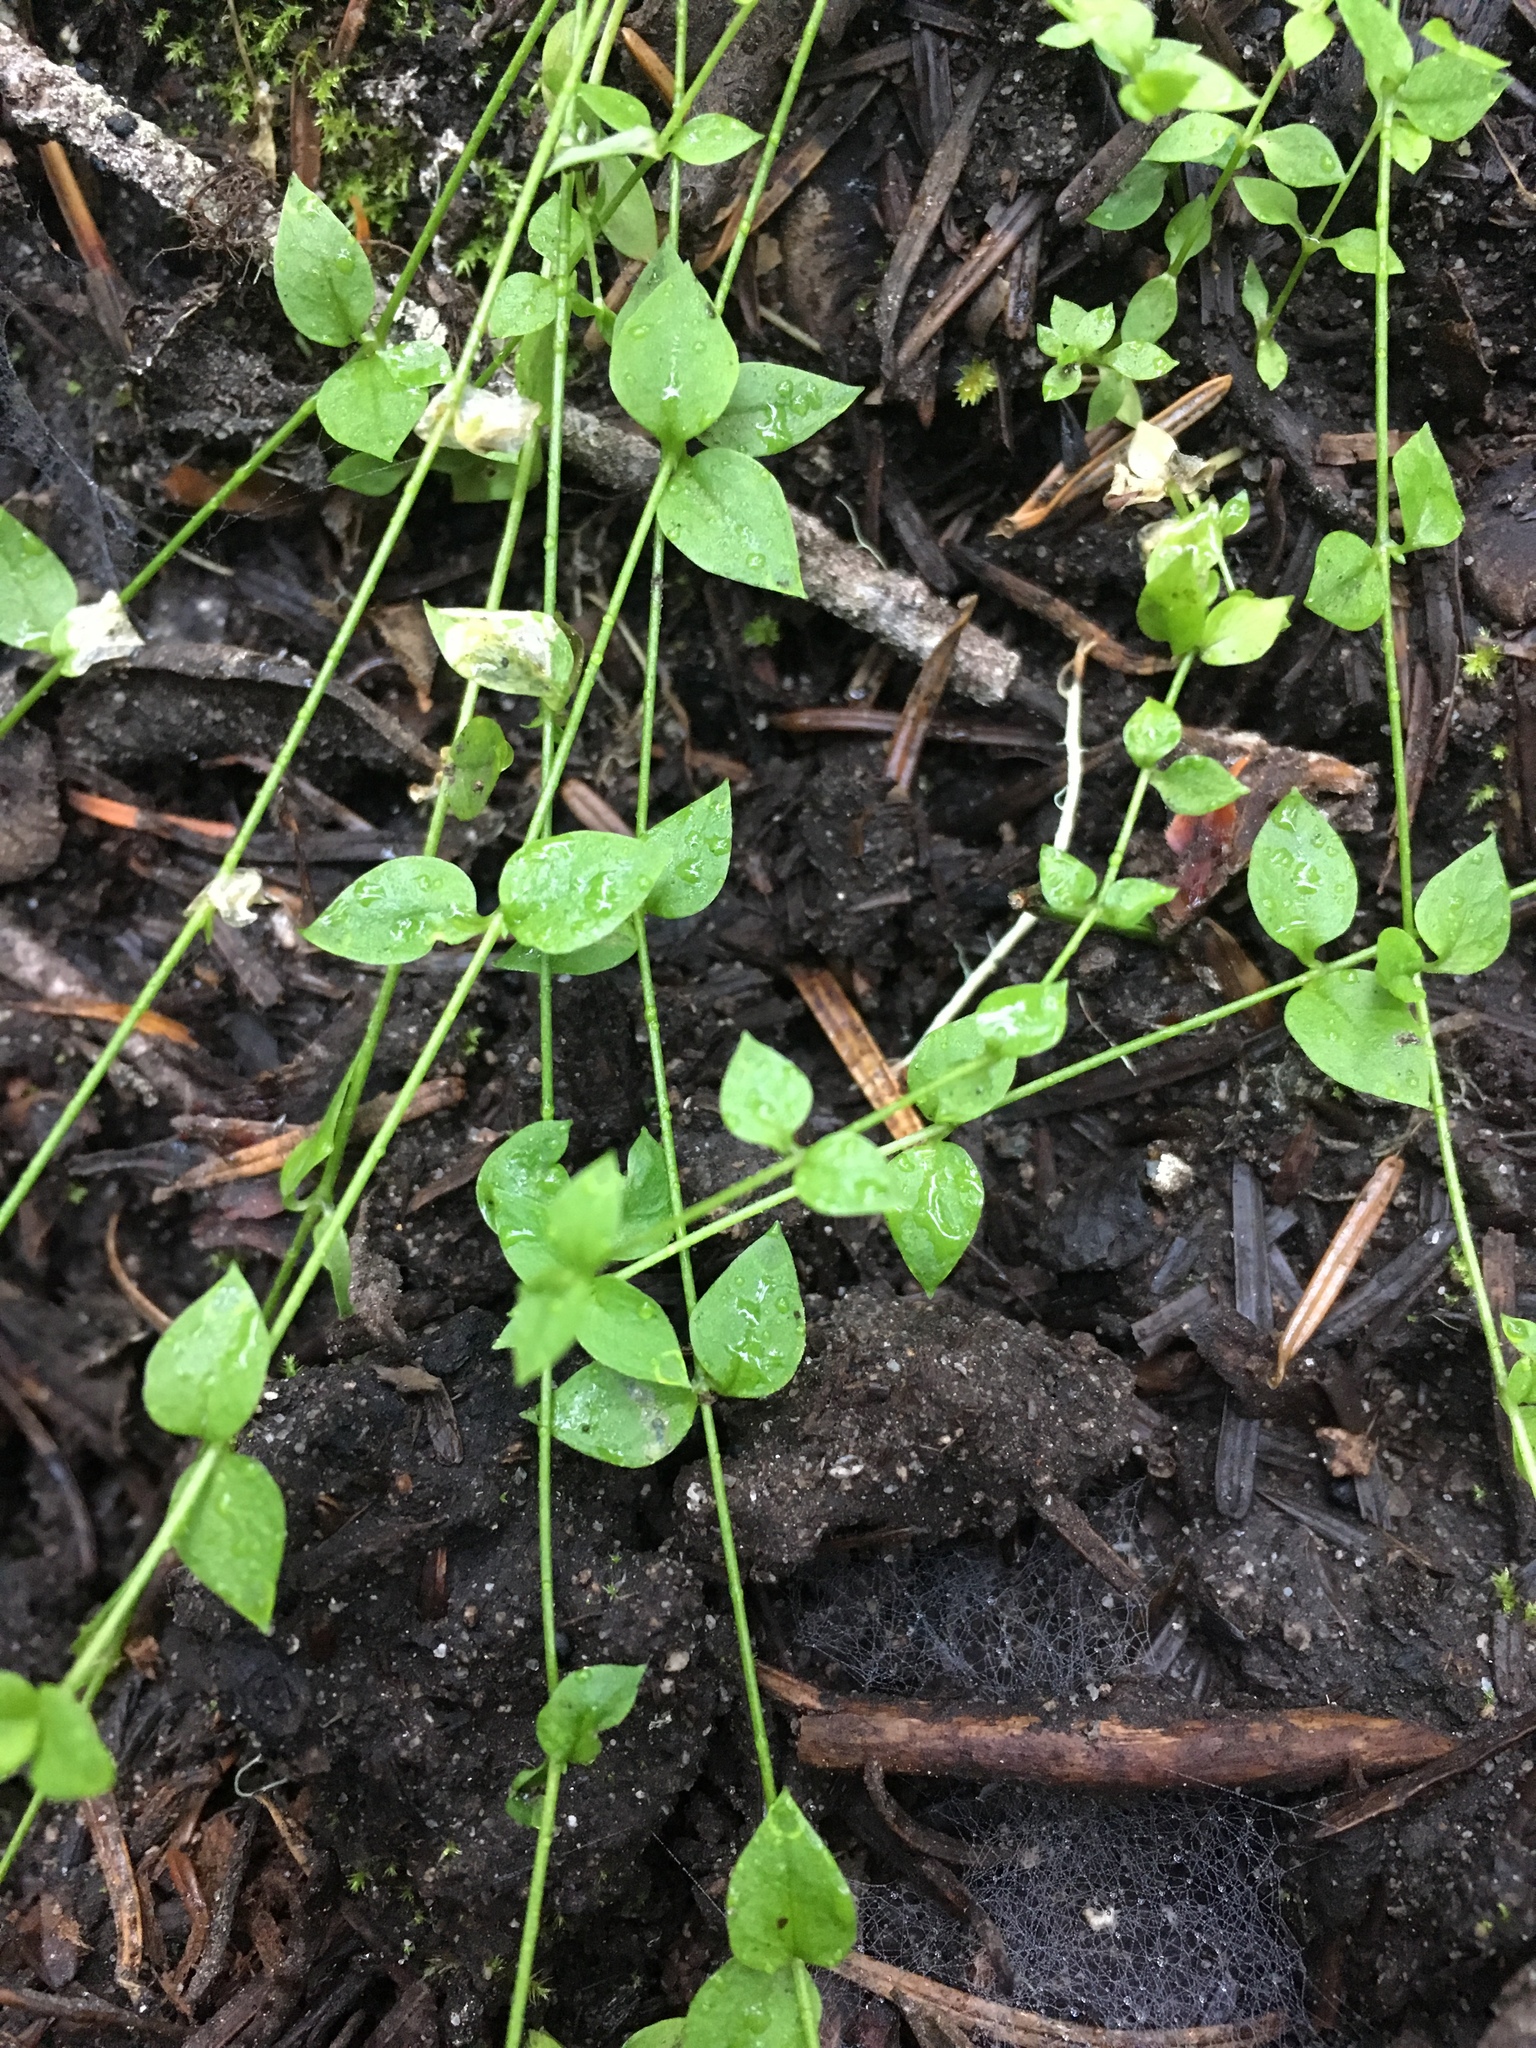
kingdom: Plantae
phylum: Tracheophyta
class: Magnoliopsida
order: Caryophyllales
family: Caryophyllaceae
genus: Stellaria
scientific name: Stellaria crispa
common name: Crimped stitchwort
